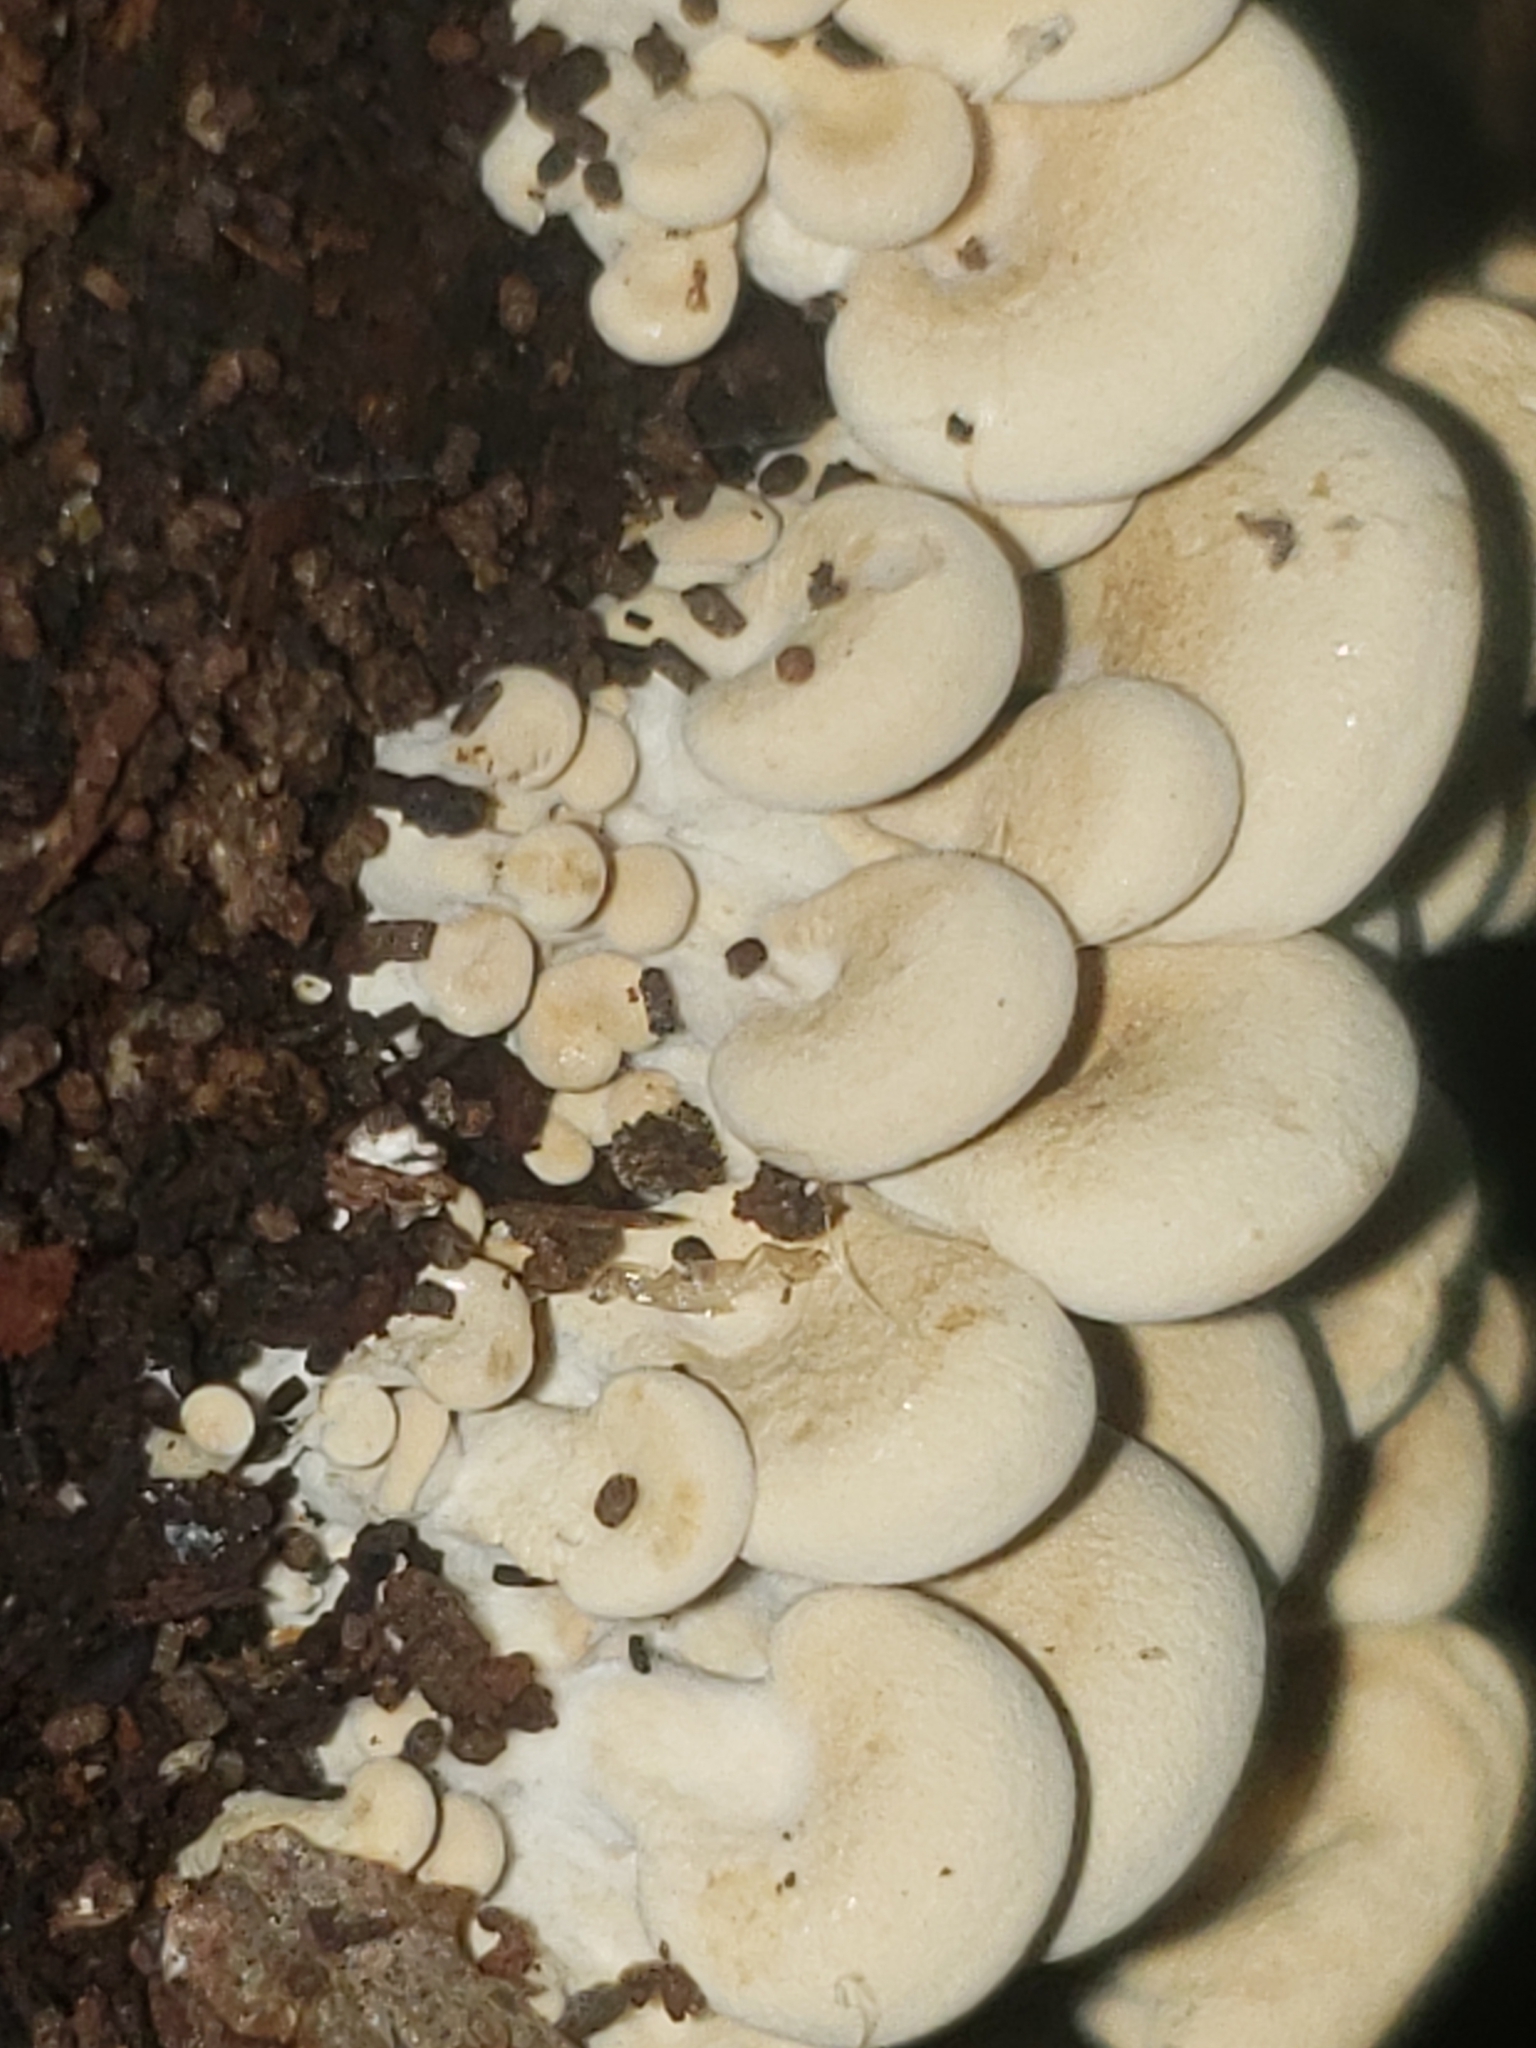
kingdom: Fungi
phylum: Basidiomycota
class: Agaricomycetes
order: Agaricales
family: Mycenaceae
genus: Panellus
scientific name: Panellus stipticus
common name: Bitter oysterling
